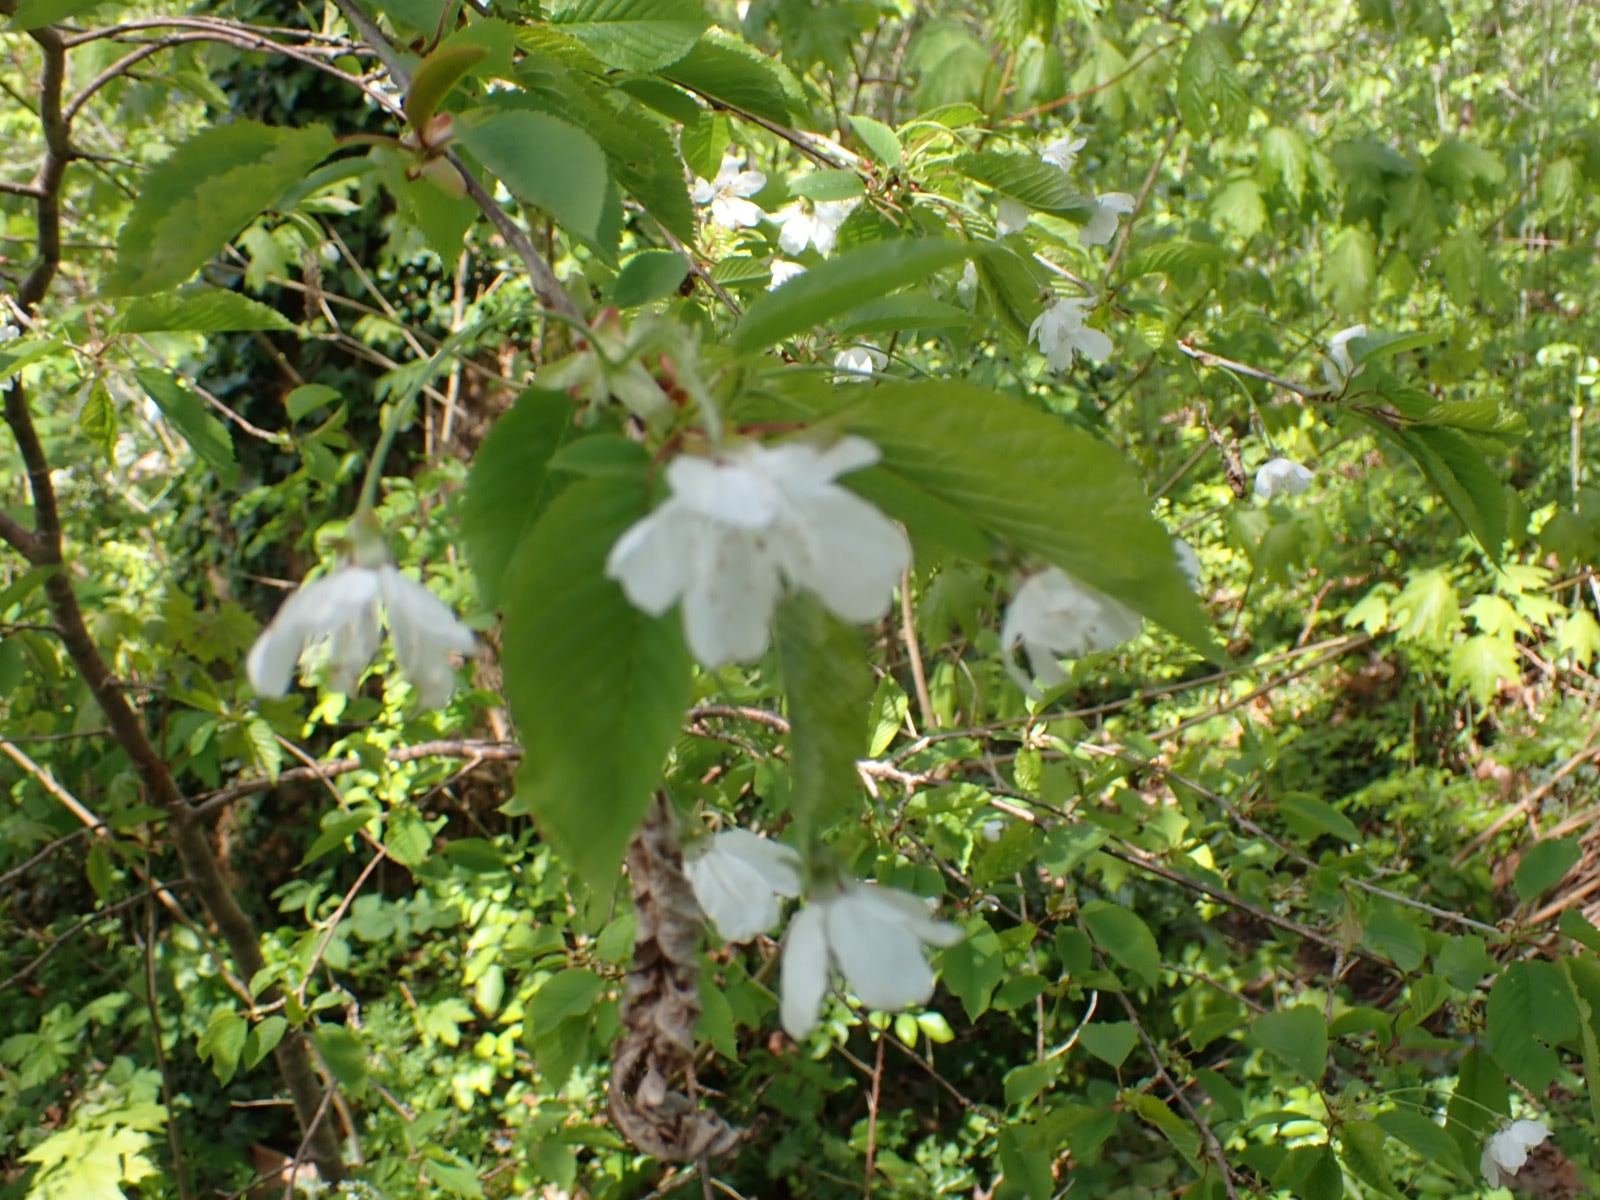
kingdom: Plantae
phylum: Tracheophyta
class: Magnoliopsida
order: Rosales
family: Rosaceae
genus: Prunus
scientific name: Prunus avium
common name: Sweet cherry
